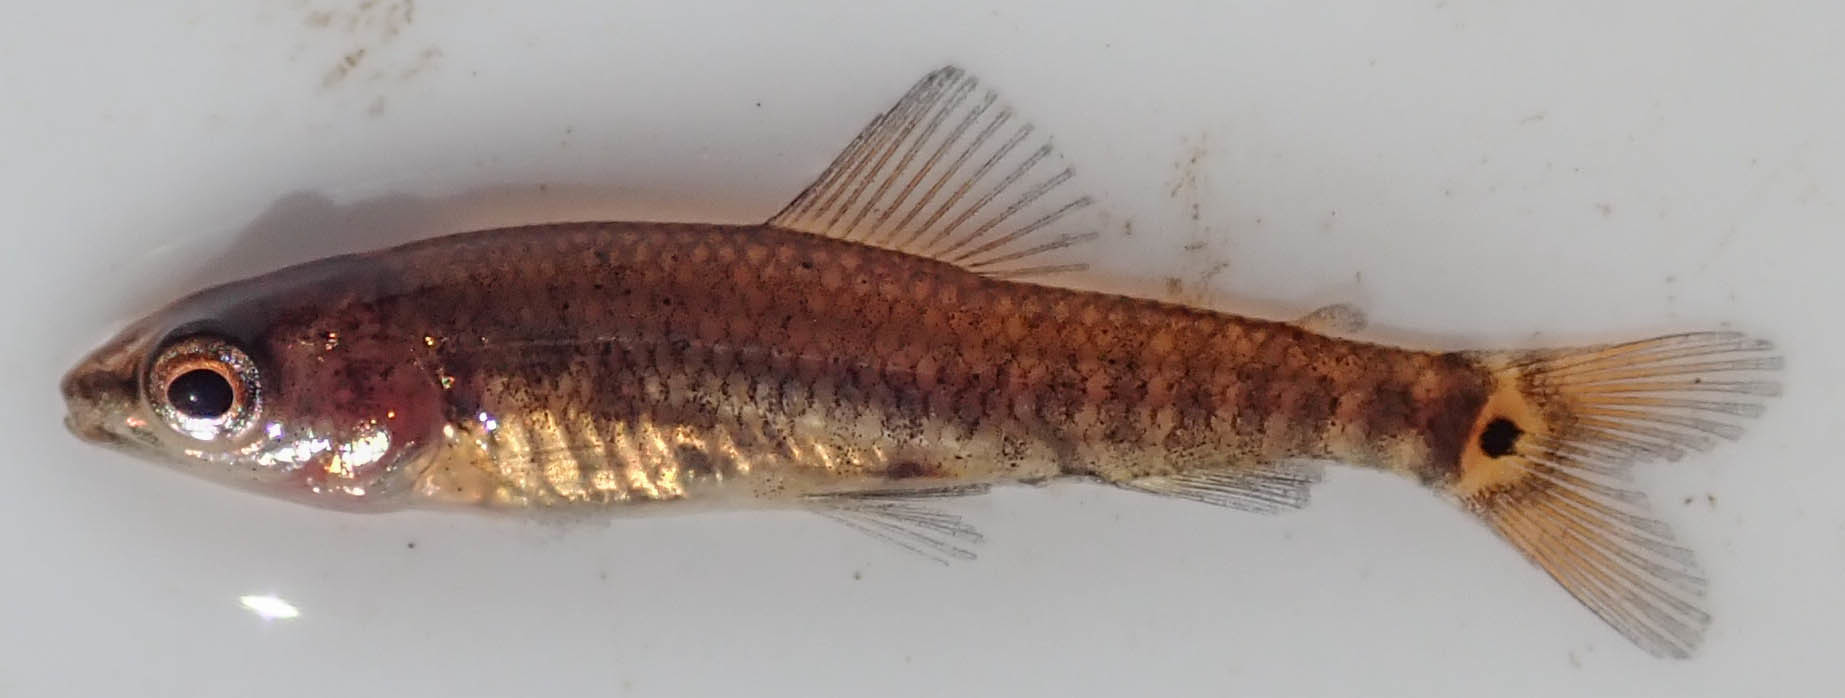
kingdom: Animalia
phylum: Chordata
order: Characiformes
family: Distichodontidae
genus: Nannocharax
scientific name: Nannocharax multifasciatus
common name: Multibar citharine
